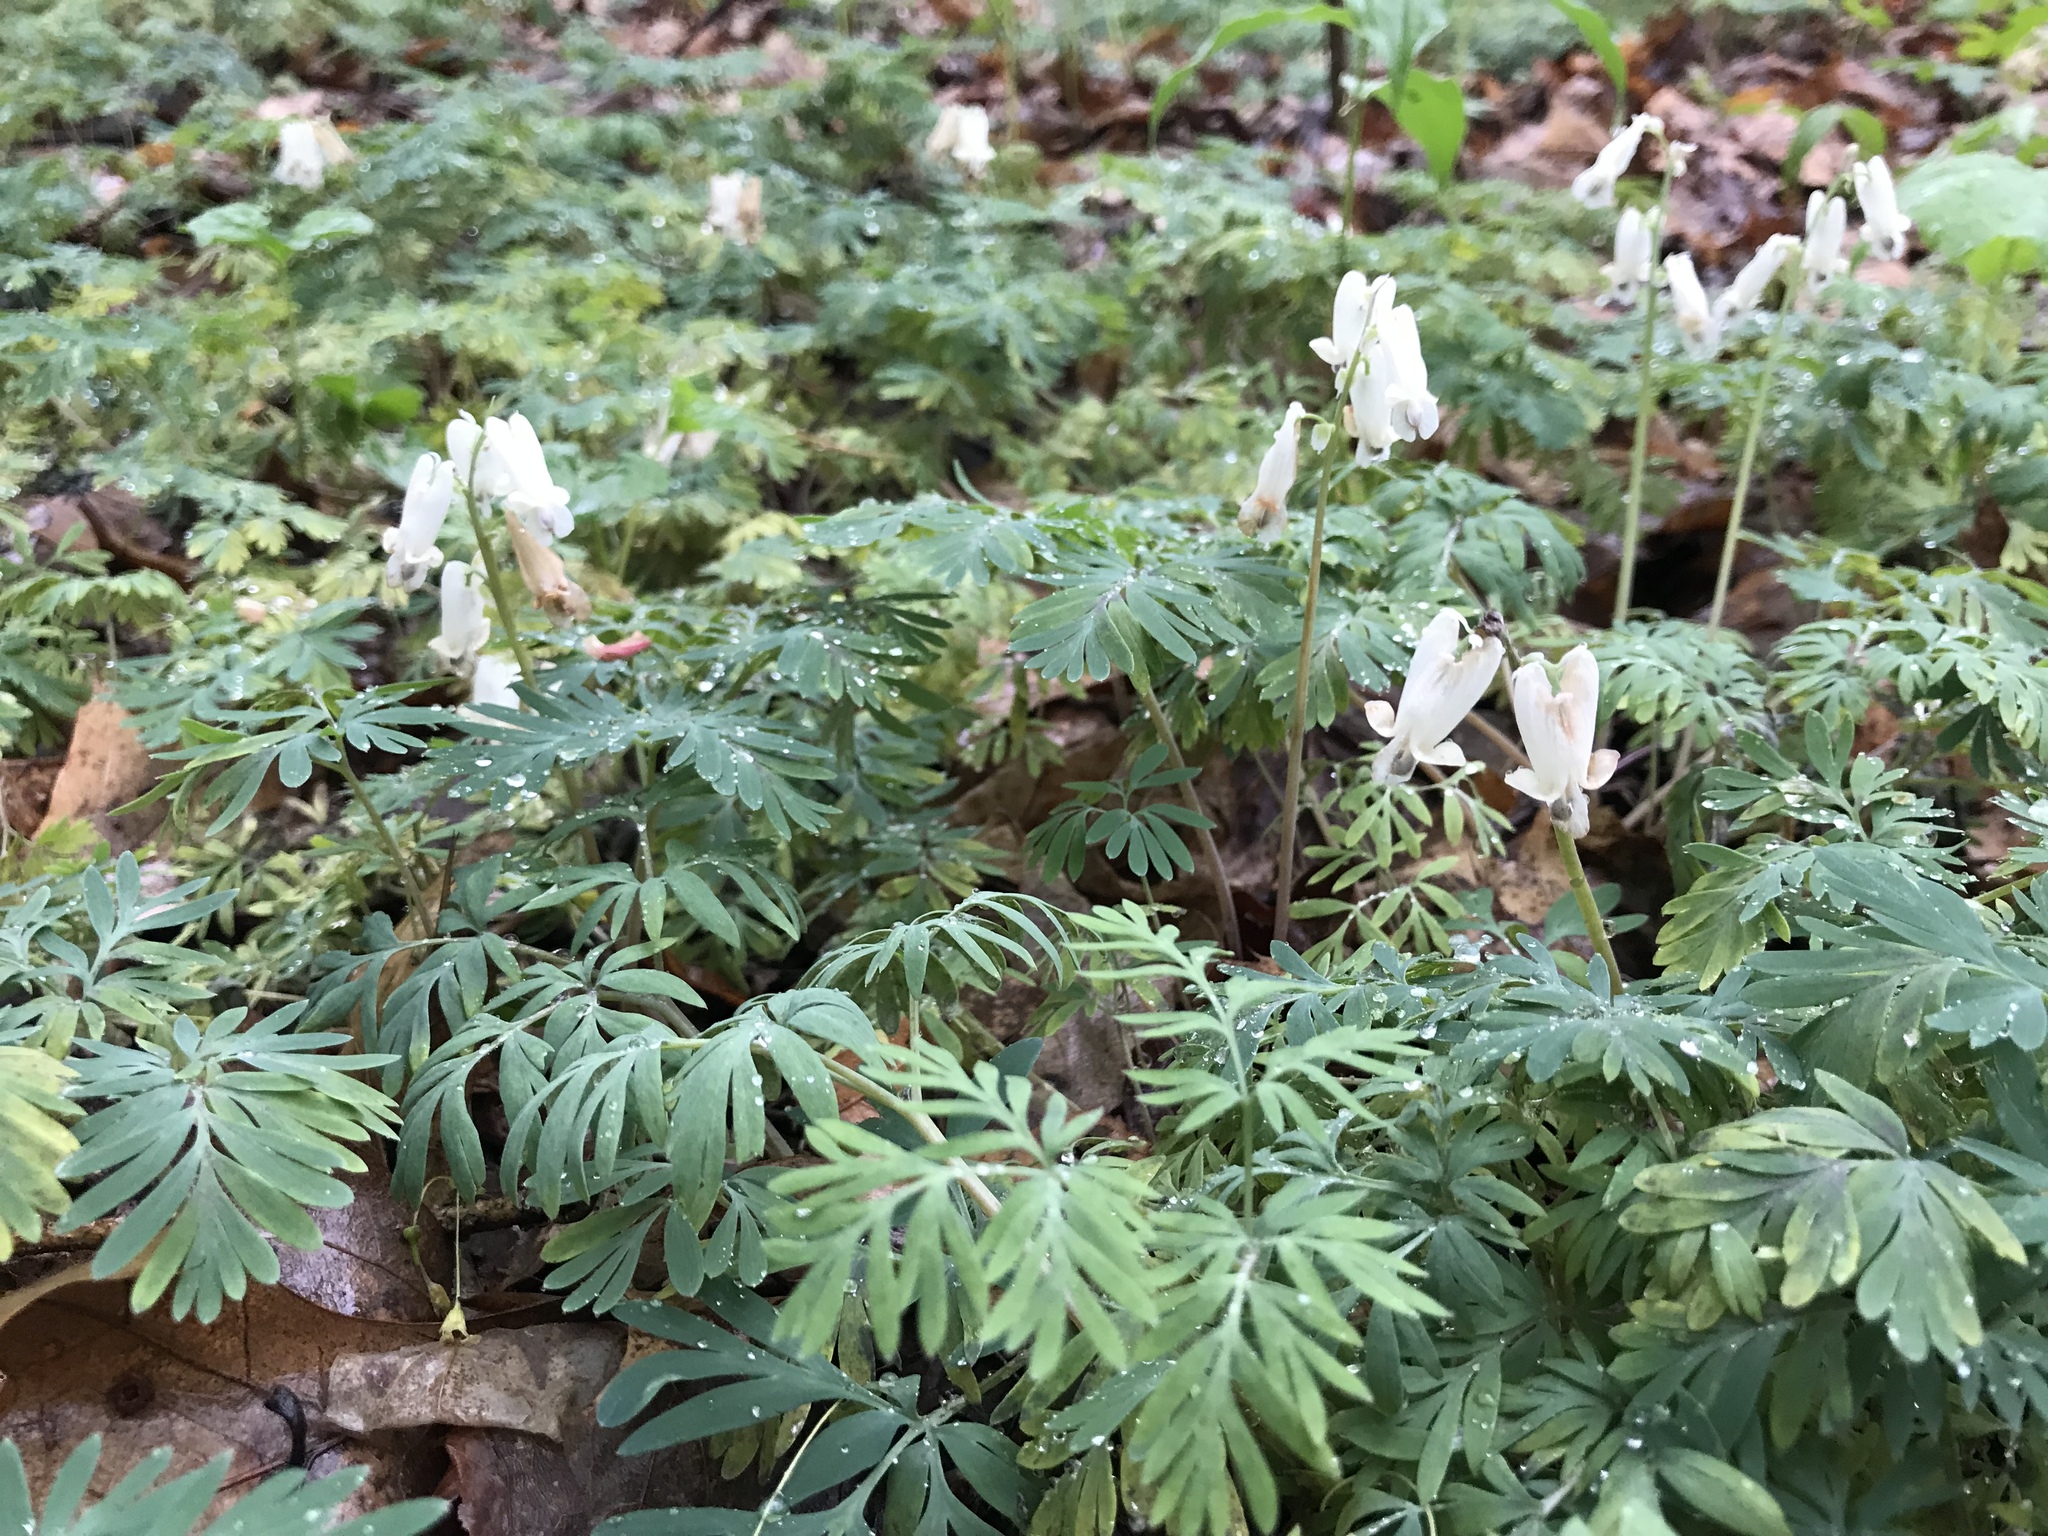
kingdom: Plantae
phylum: Tracheophyta
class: Magnoliopsida
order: Ranunculales
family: Papaveraceae
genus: Dicentra
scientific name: Dicentra canadensis
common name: Squirrel-corn
